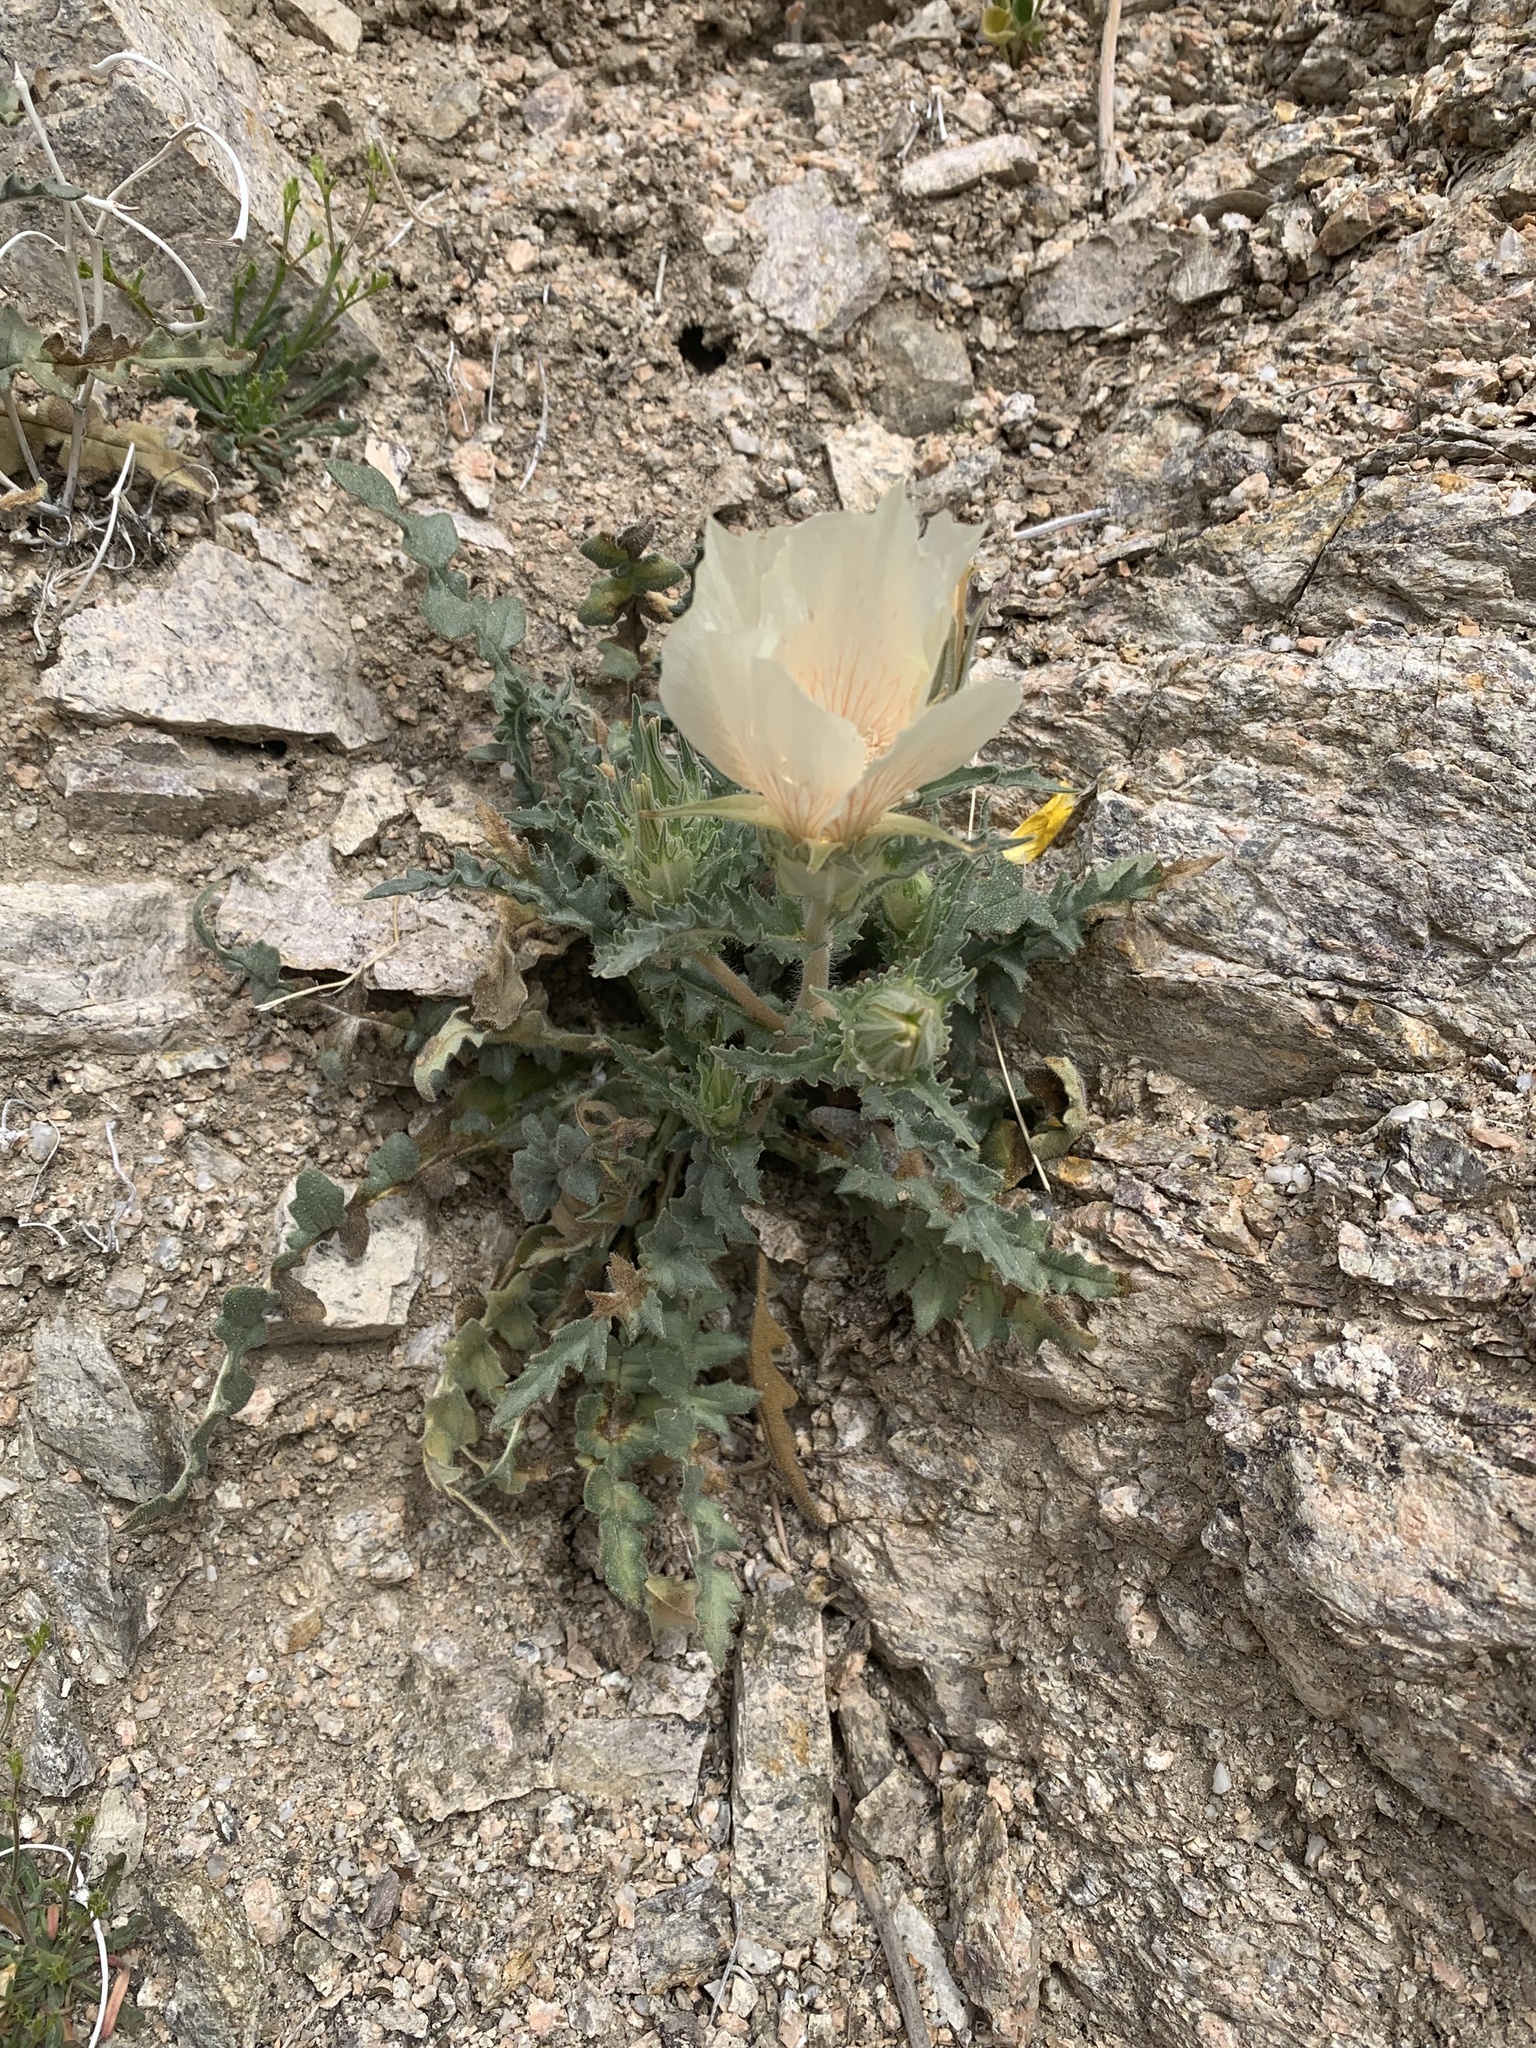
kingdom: Plantae
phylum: Tracheophyta
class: Magnoliopsida
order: Cornales
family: Loasaceae
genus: Mentzelia
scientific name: Mentzelia involucrata
